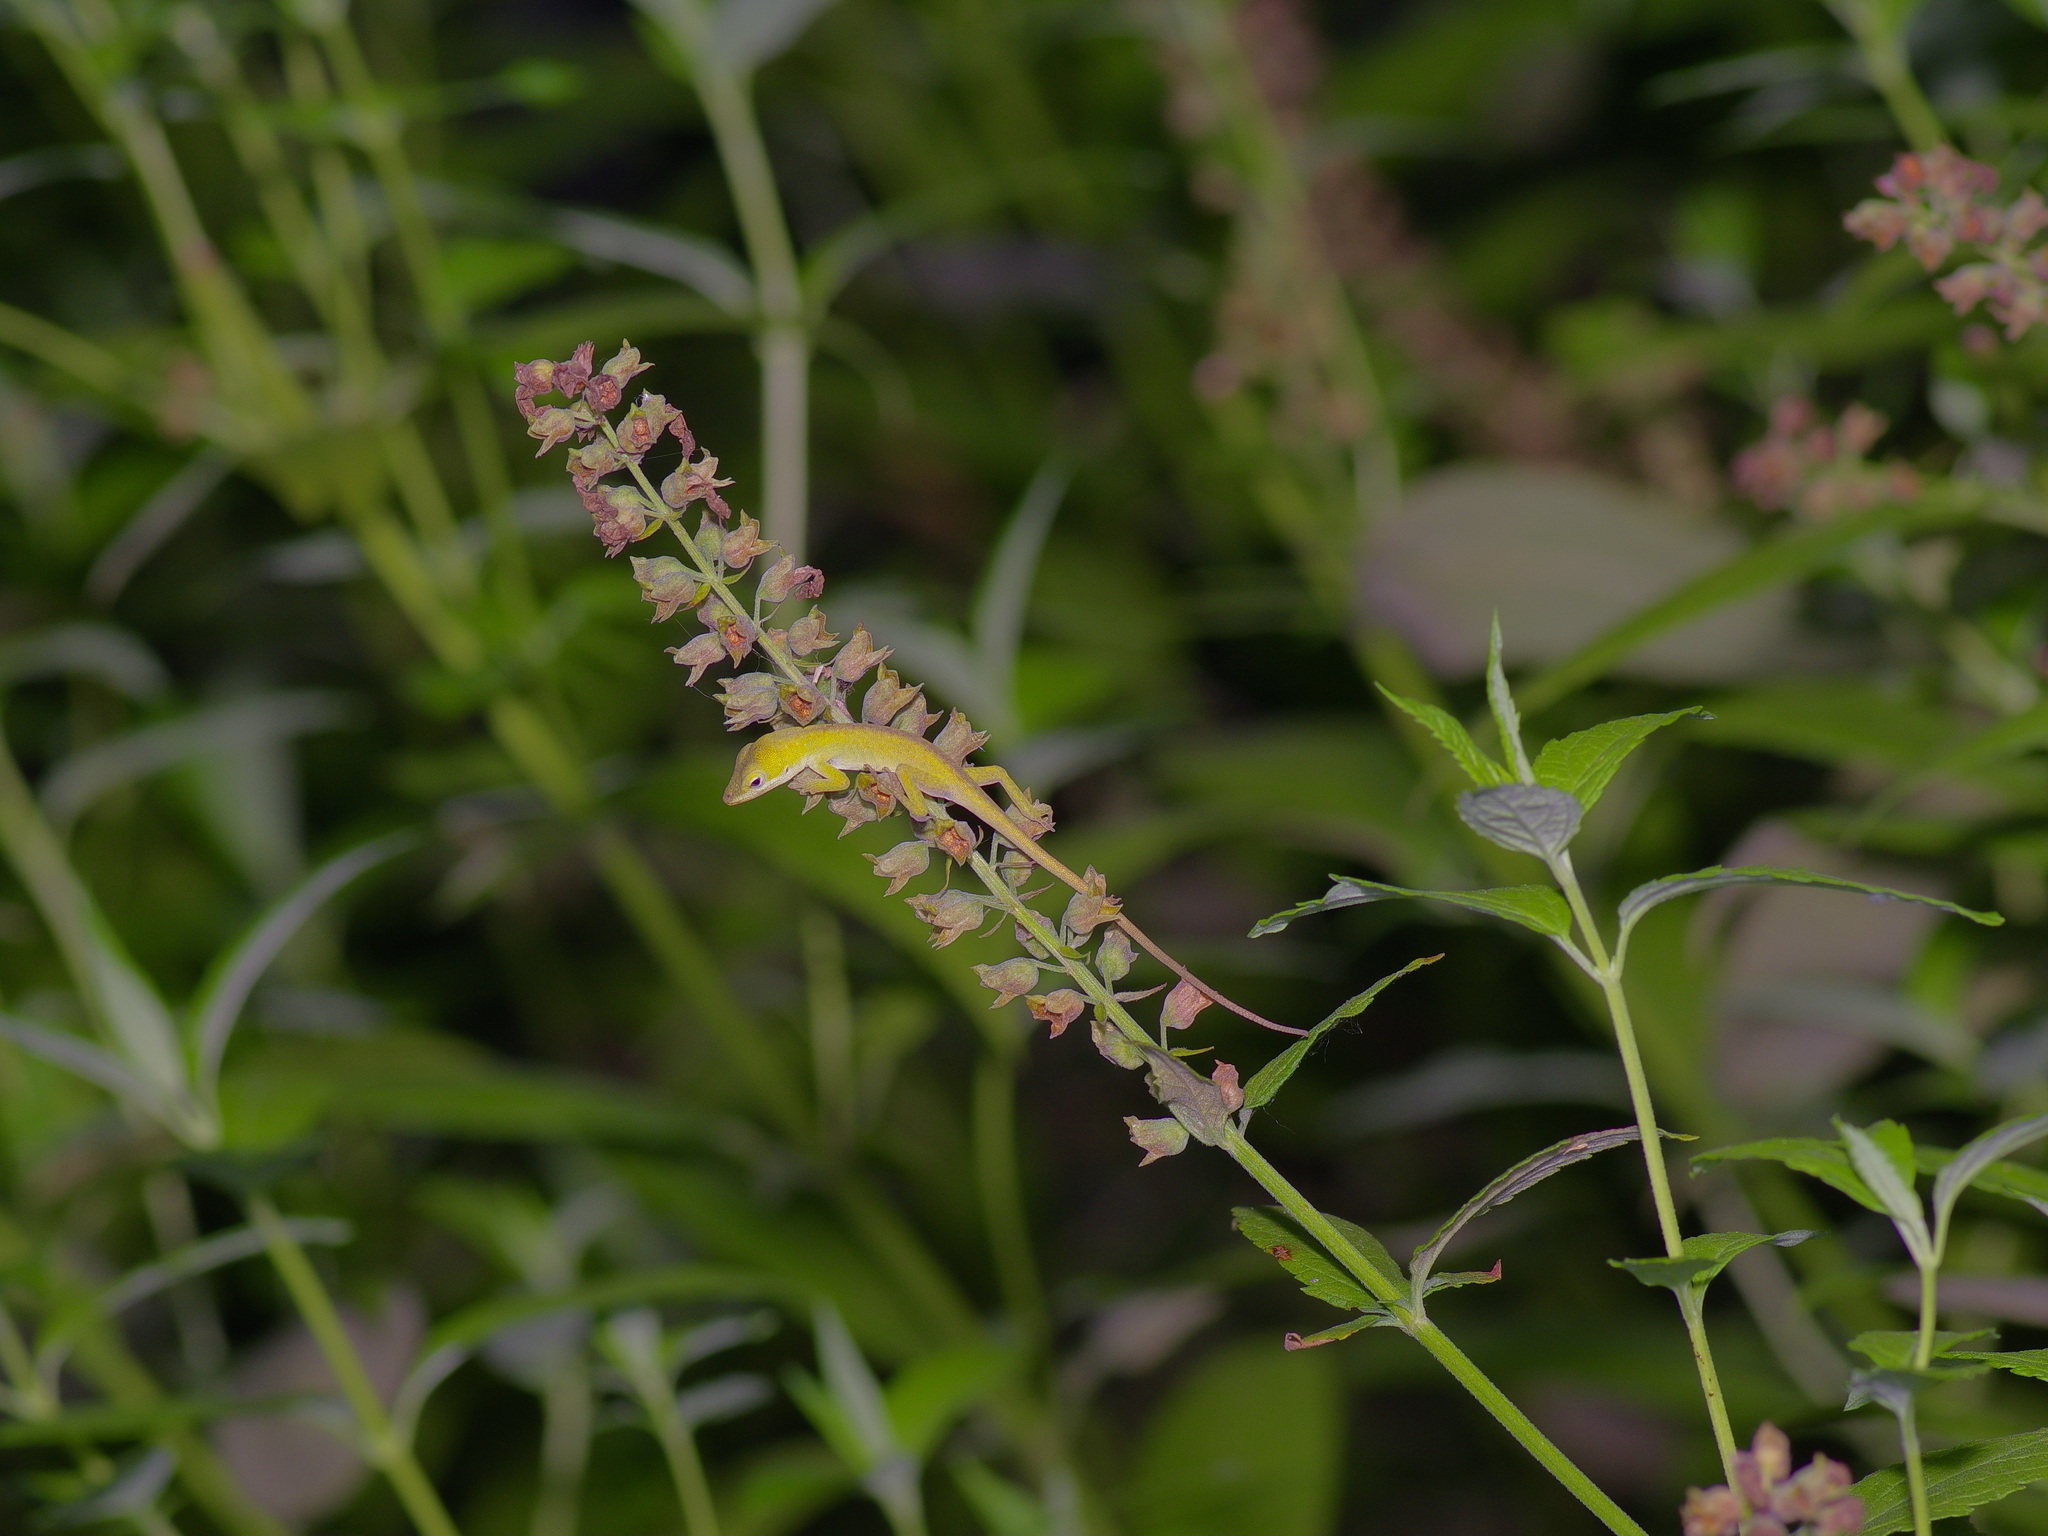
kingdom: Animalia
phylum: Chordata
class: Squamata
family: Dactyloidae
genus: Anolis
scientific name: Anolis carolinensis
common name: Green anole
